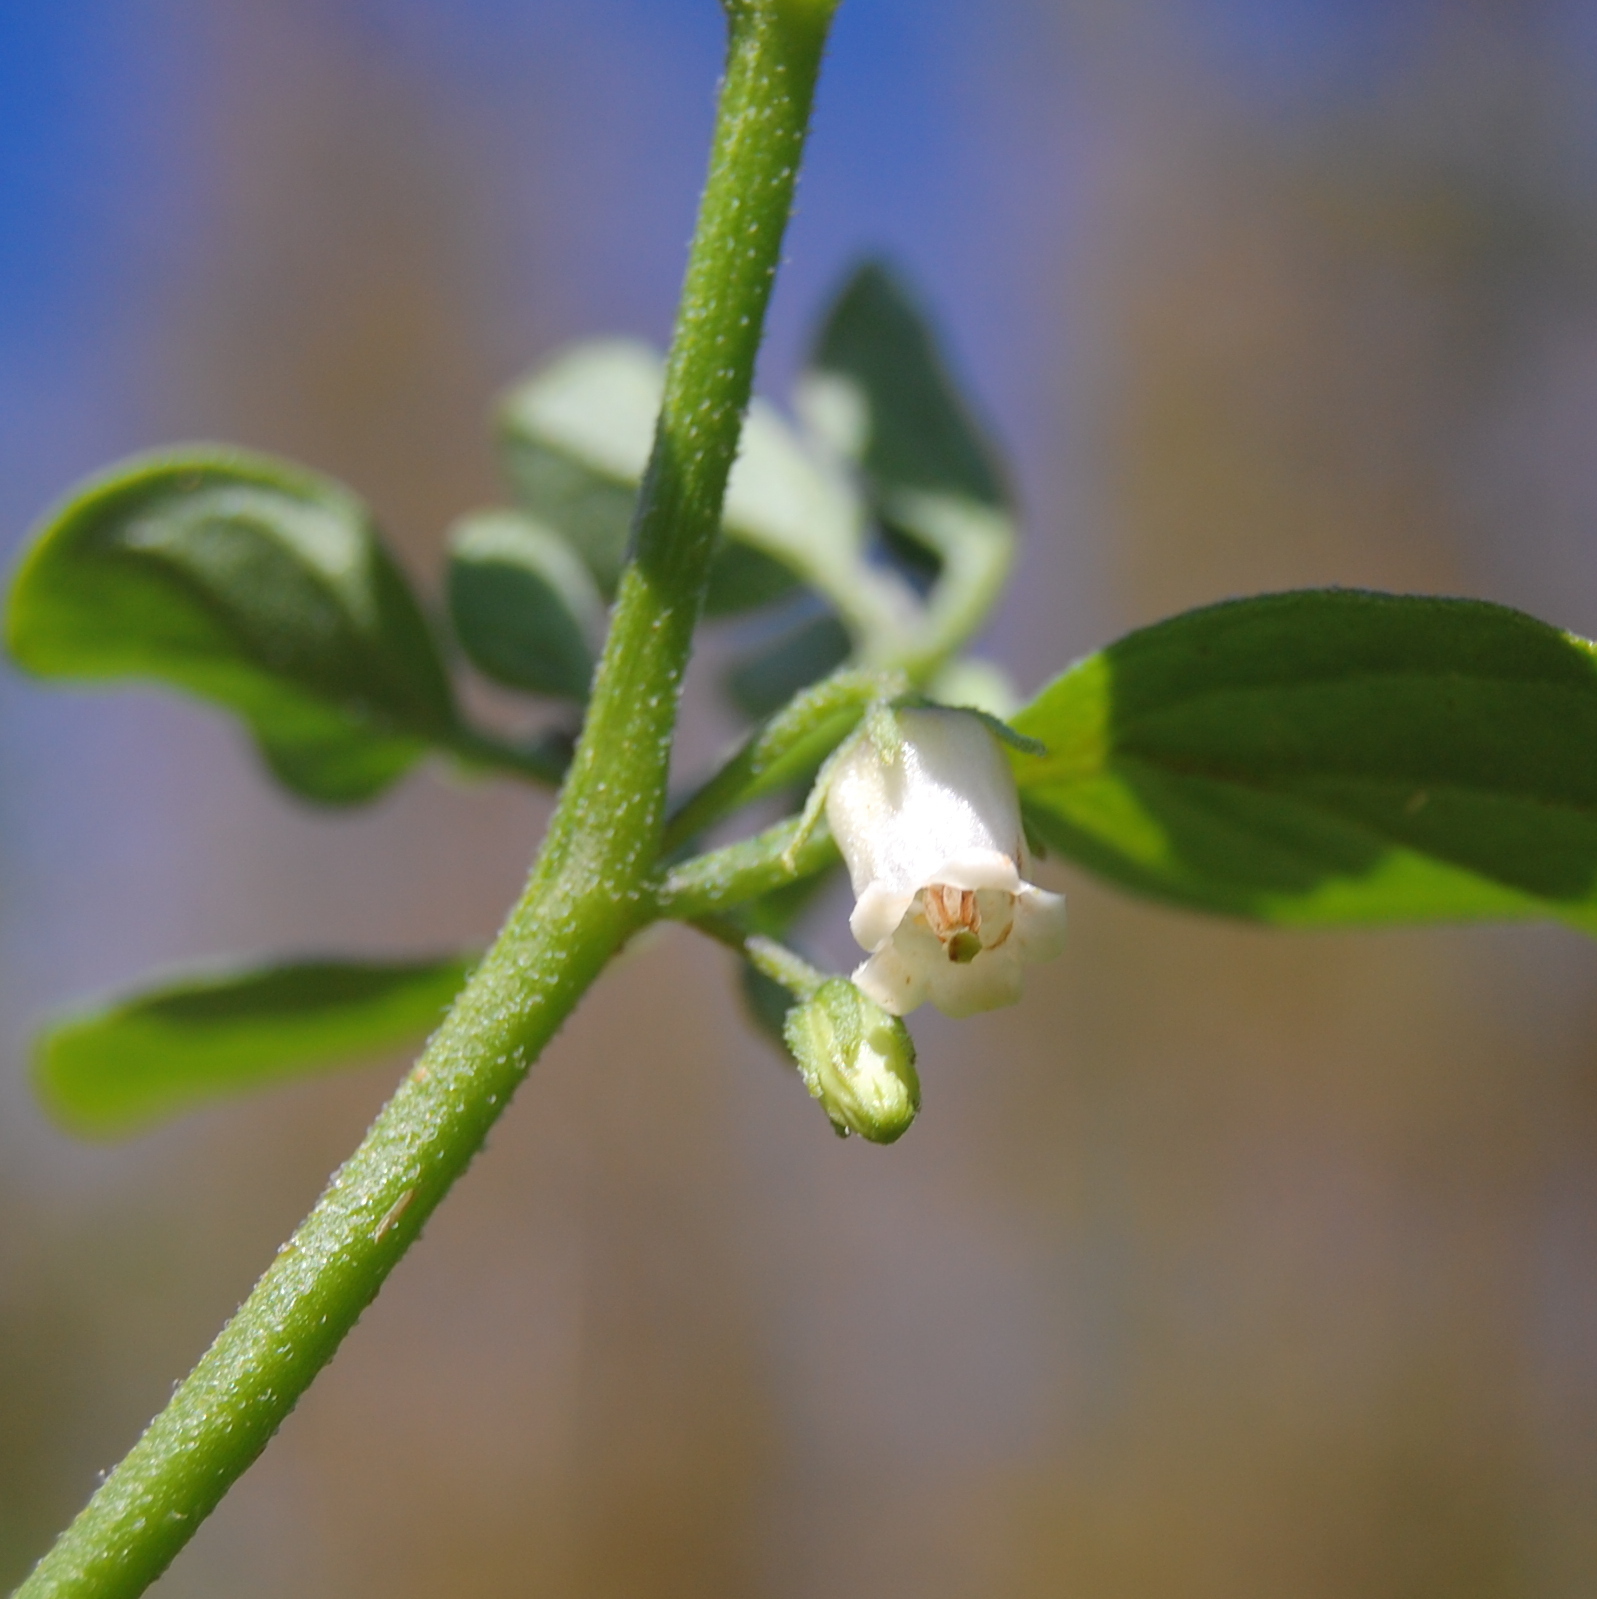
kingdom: Plantae
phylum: Tracheophyta
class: Magnoliopsida
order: Solanales
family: Solanaceae
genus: Salpichroa
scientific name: Salpichroa origanifolia
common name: Lily-of-the-valley-vine
